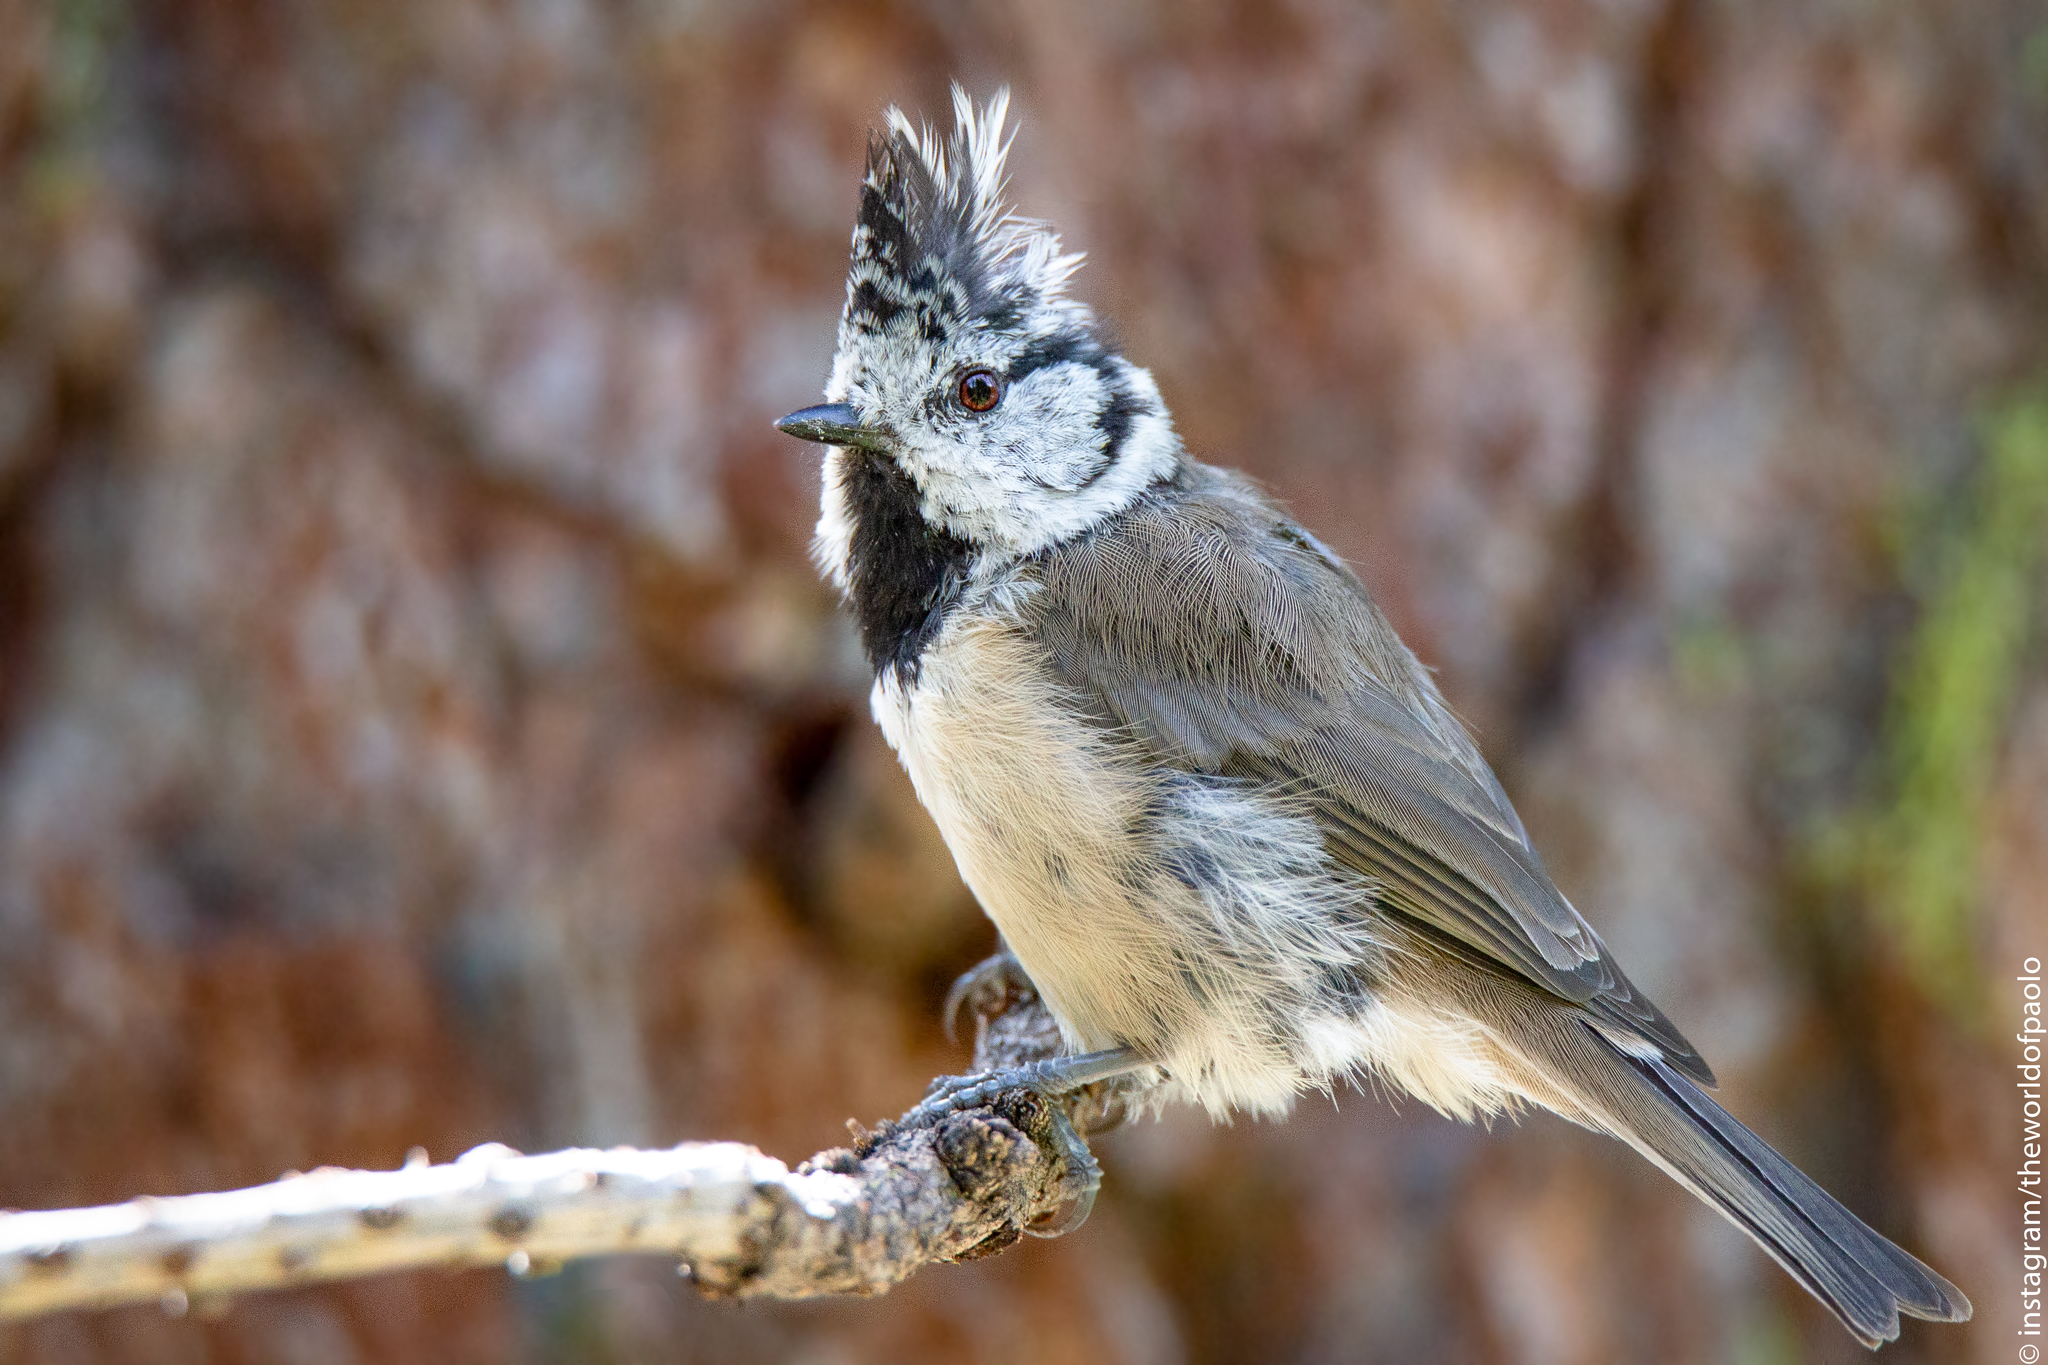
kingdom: Animalia
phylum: Chordata
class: Aves
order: Passeriformes
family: Paridae
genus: Lophophanes
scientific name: Lophophanes cristatus
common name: European crested tit
